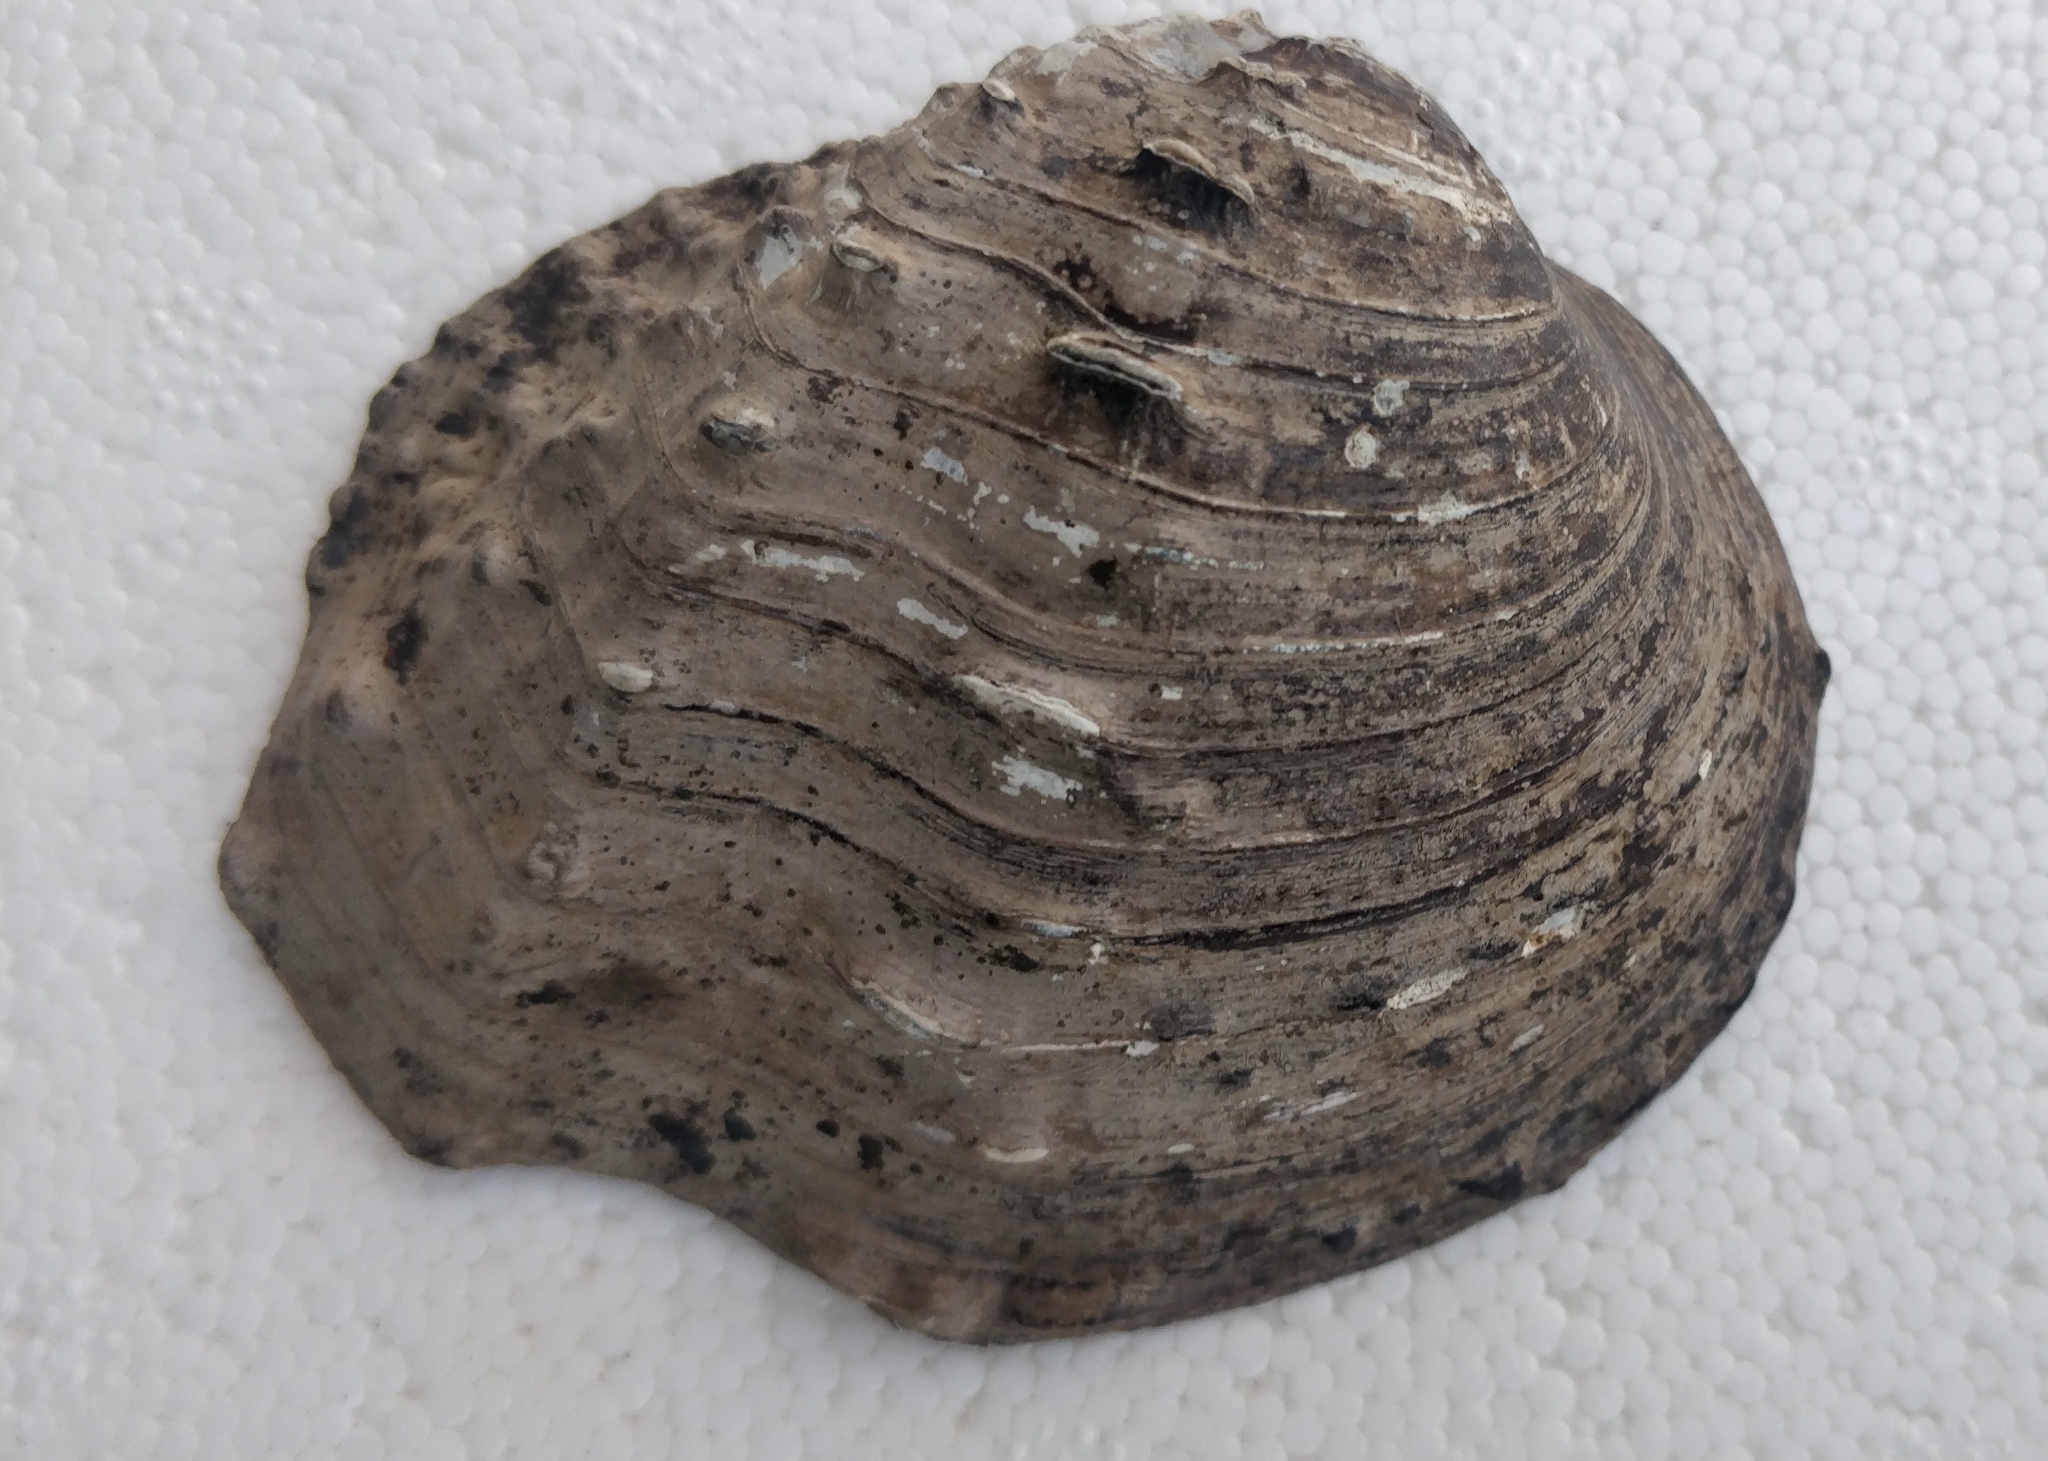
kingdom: Animalia
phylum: Mollusca
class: Bivalvia
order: Unionida
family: Unionidae
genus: Tritogonia
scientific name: Tritogonia nobilis
